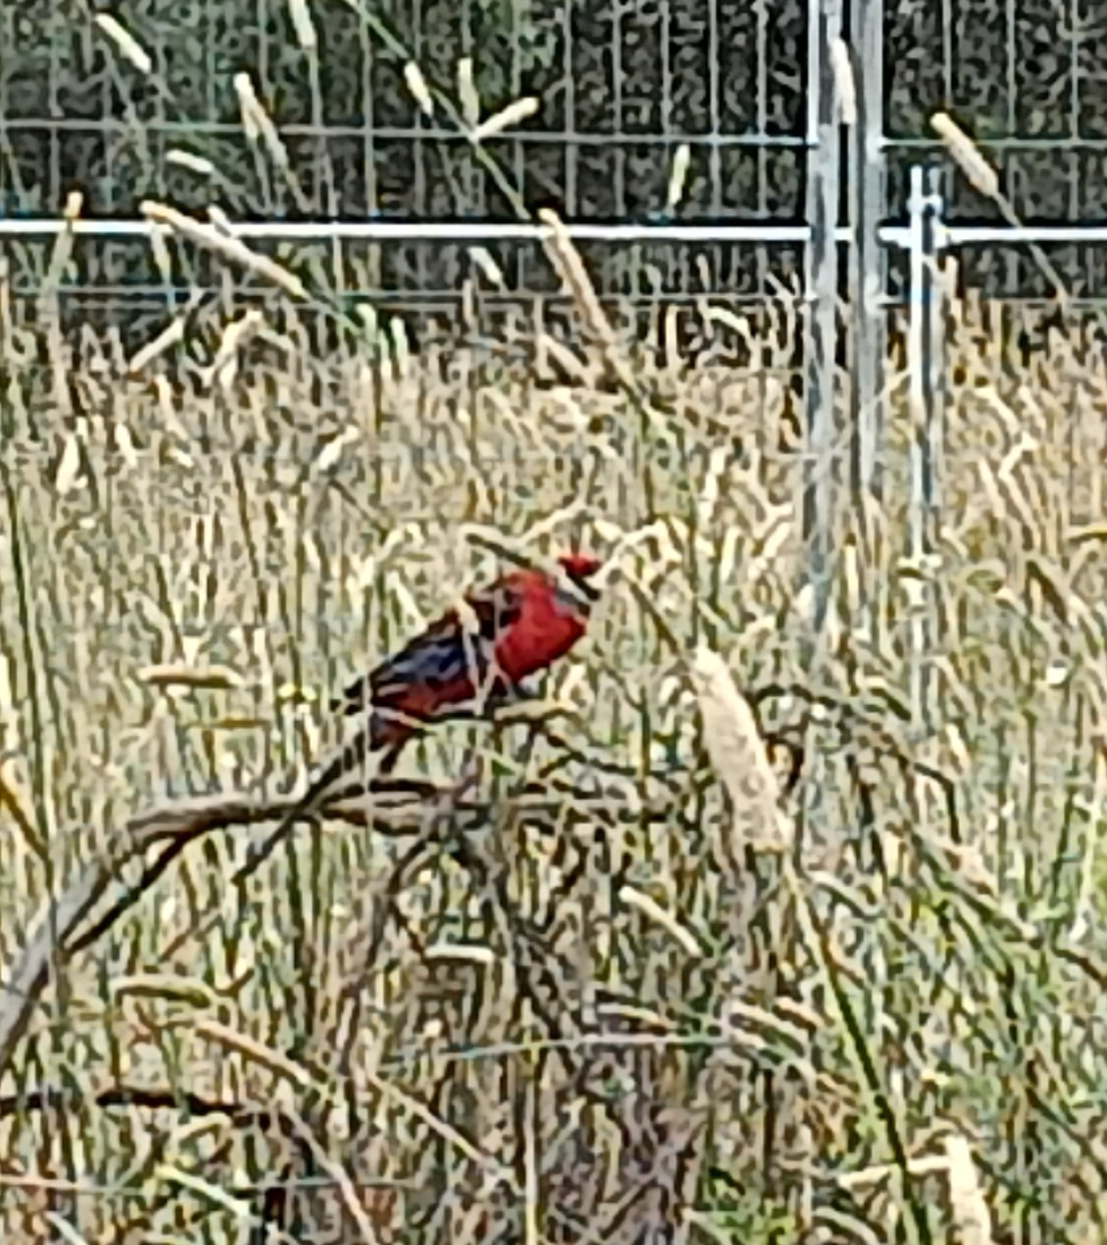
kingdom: Animalia
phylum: Chordata
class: Aves
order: Psittaciformes
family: Psittacidae
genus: Platycercus
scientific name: Platycercus elegans
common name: Crimson rosella
